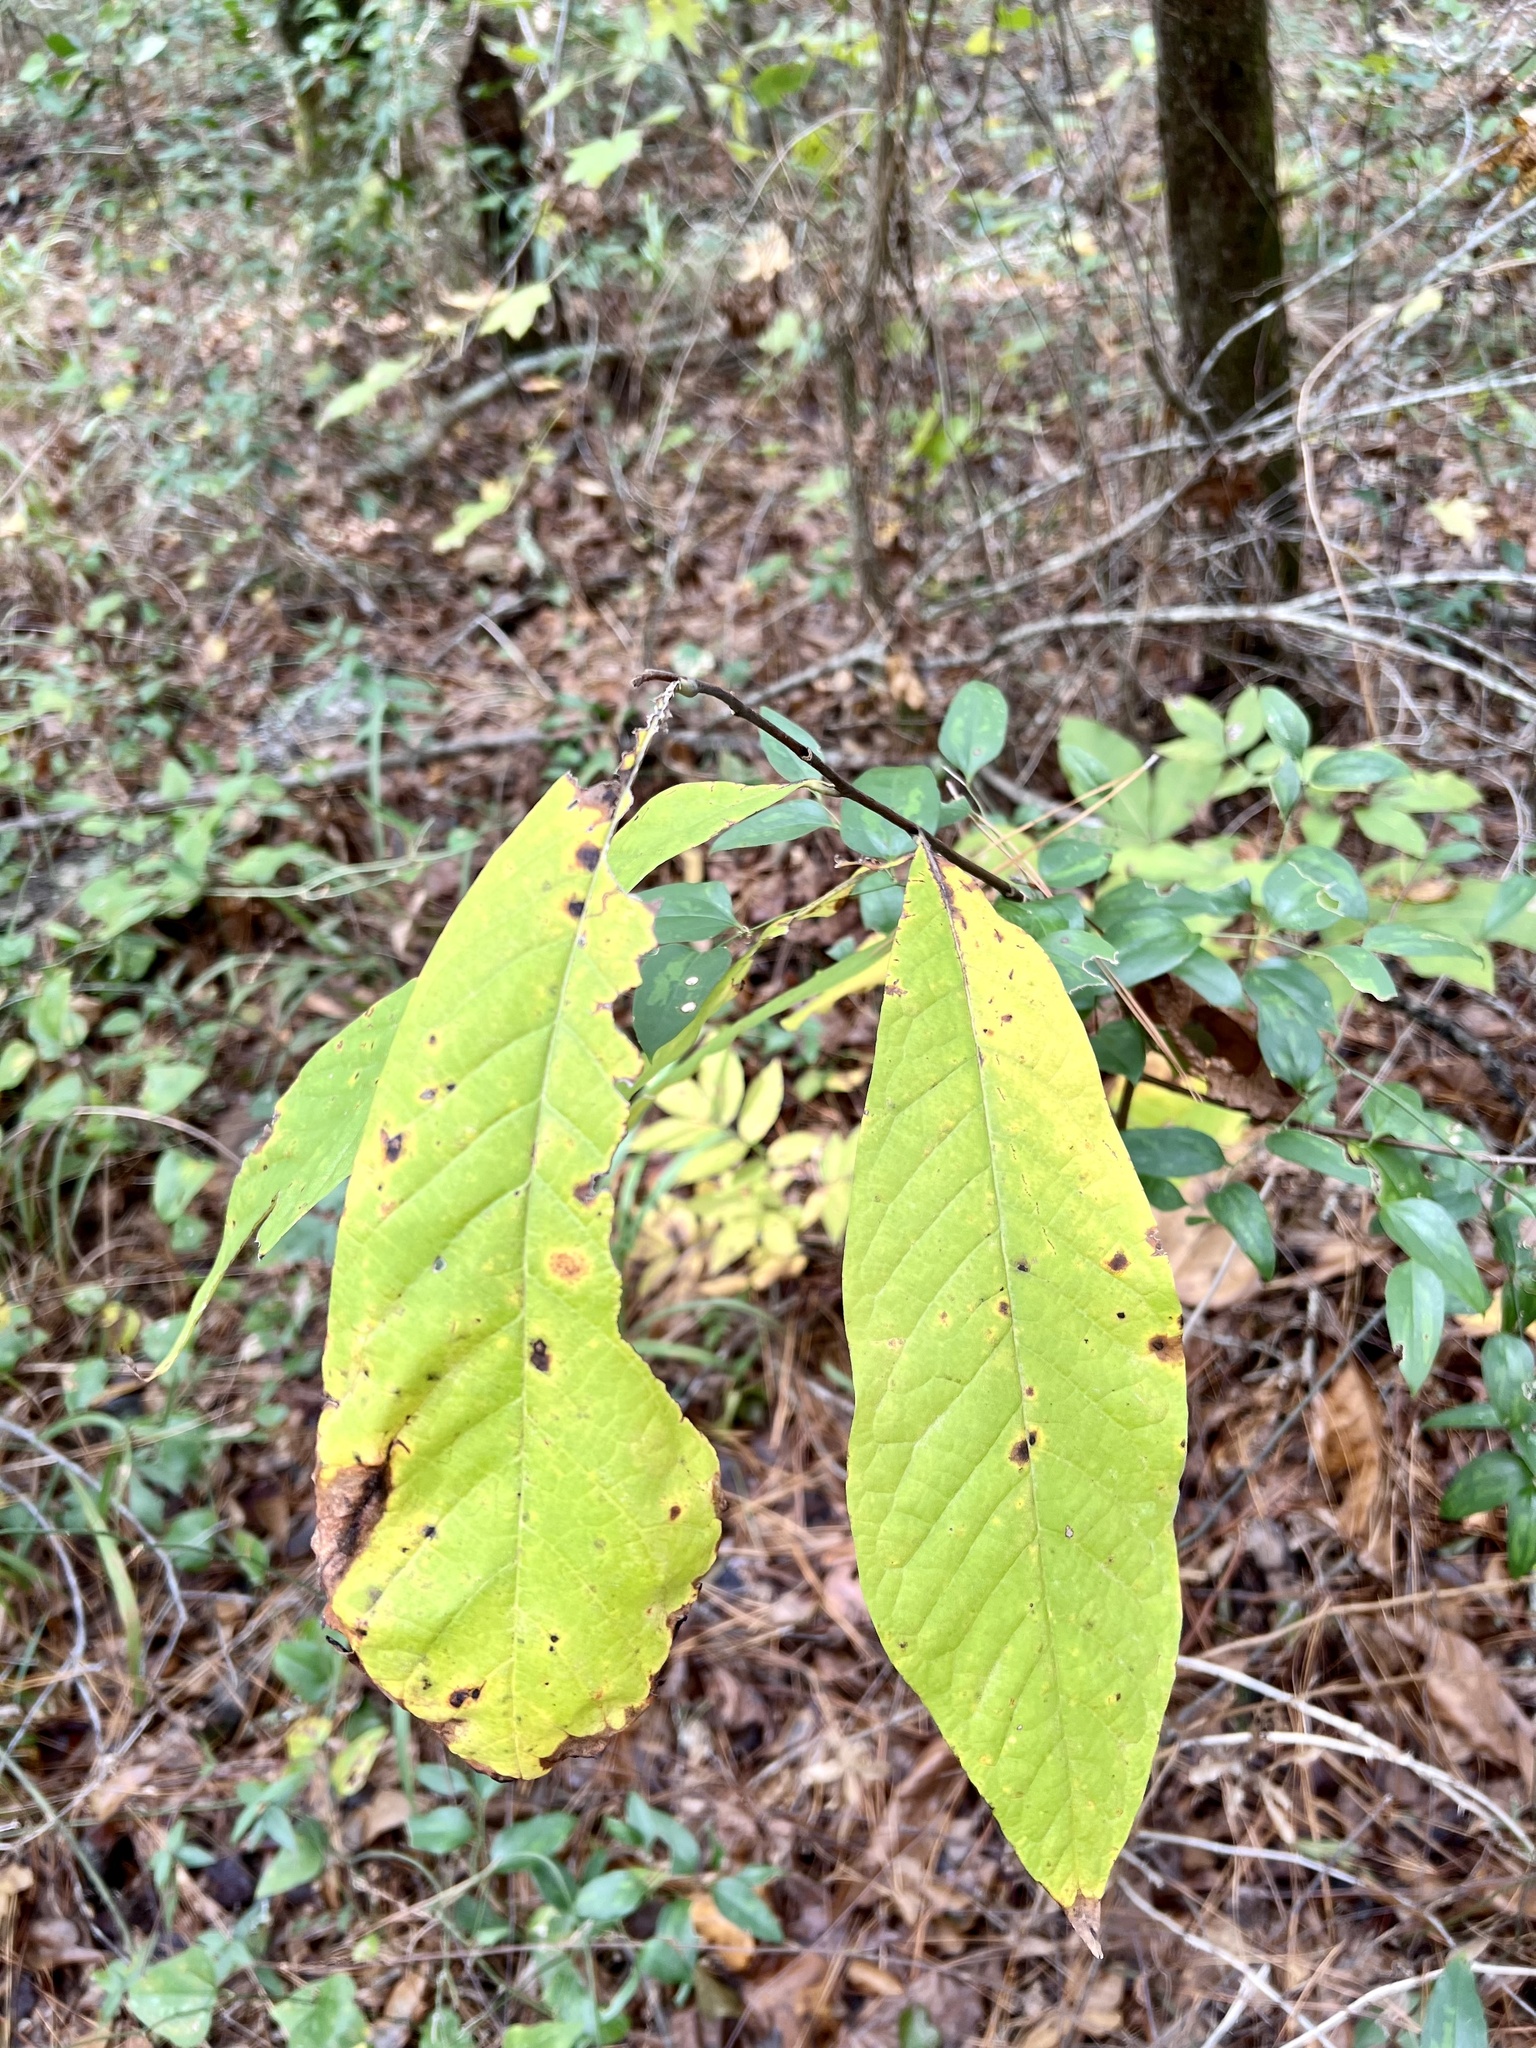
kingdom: Plantae
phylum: Tracheophyta
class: Magnoliopsida
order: Magnoliales
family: Annonaceae
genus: Asimina
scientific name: Asimina triloba
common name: Dog-banana
